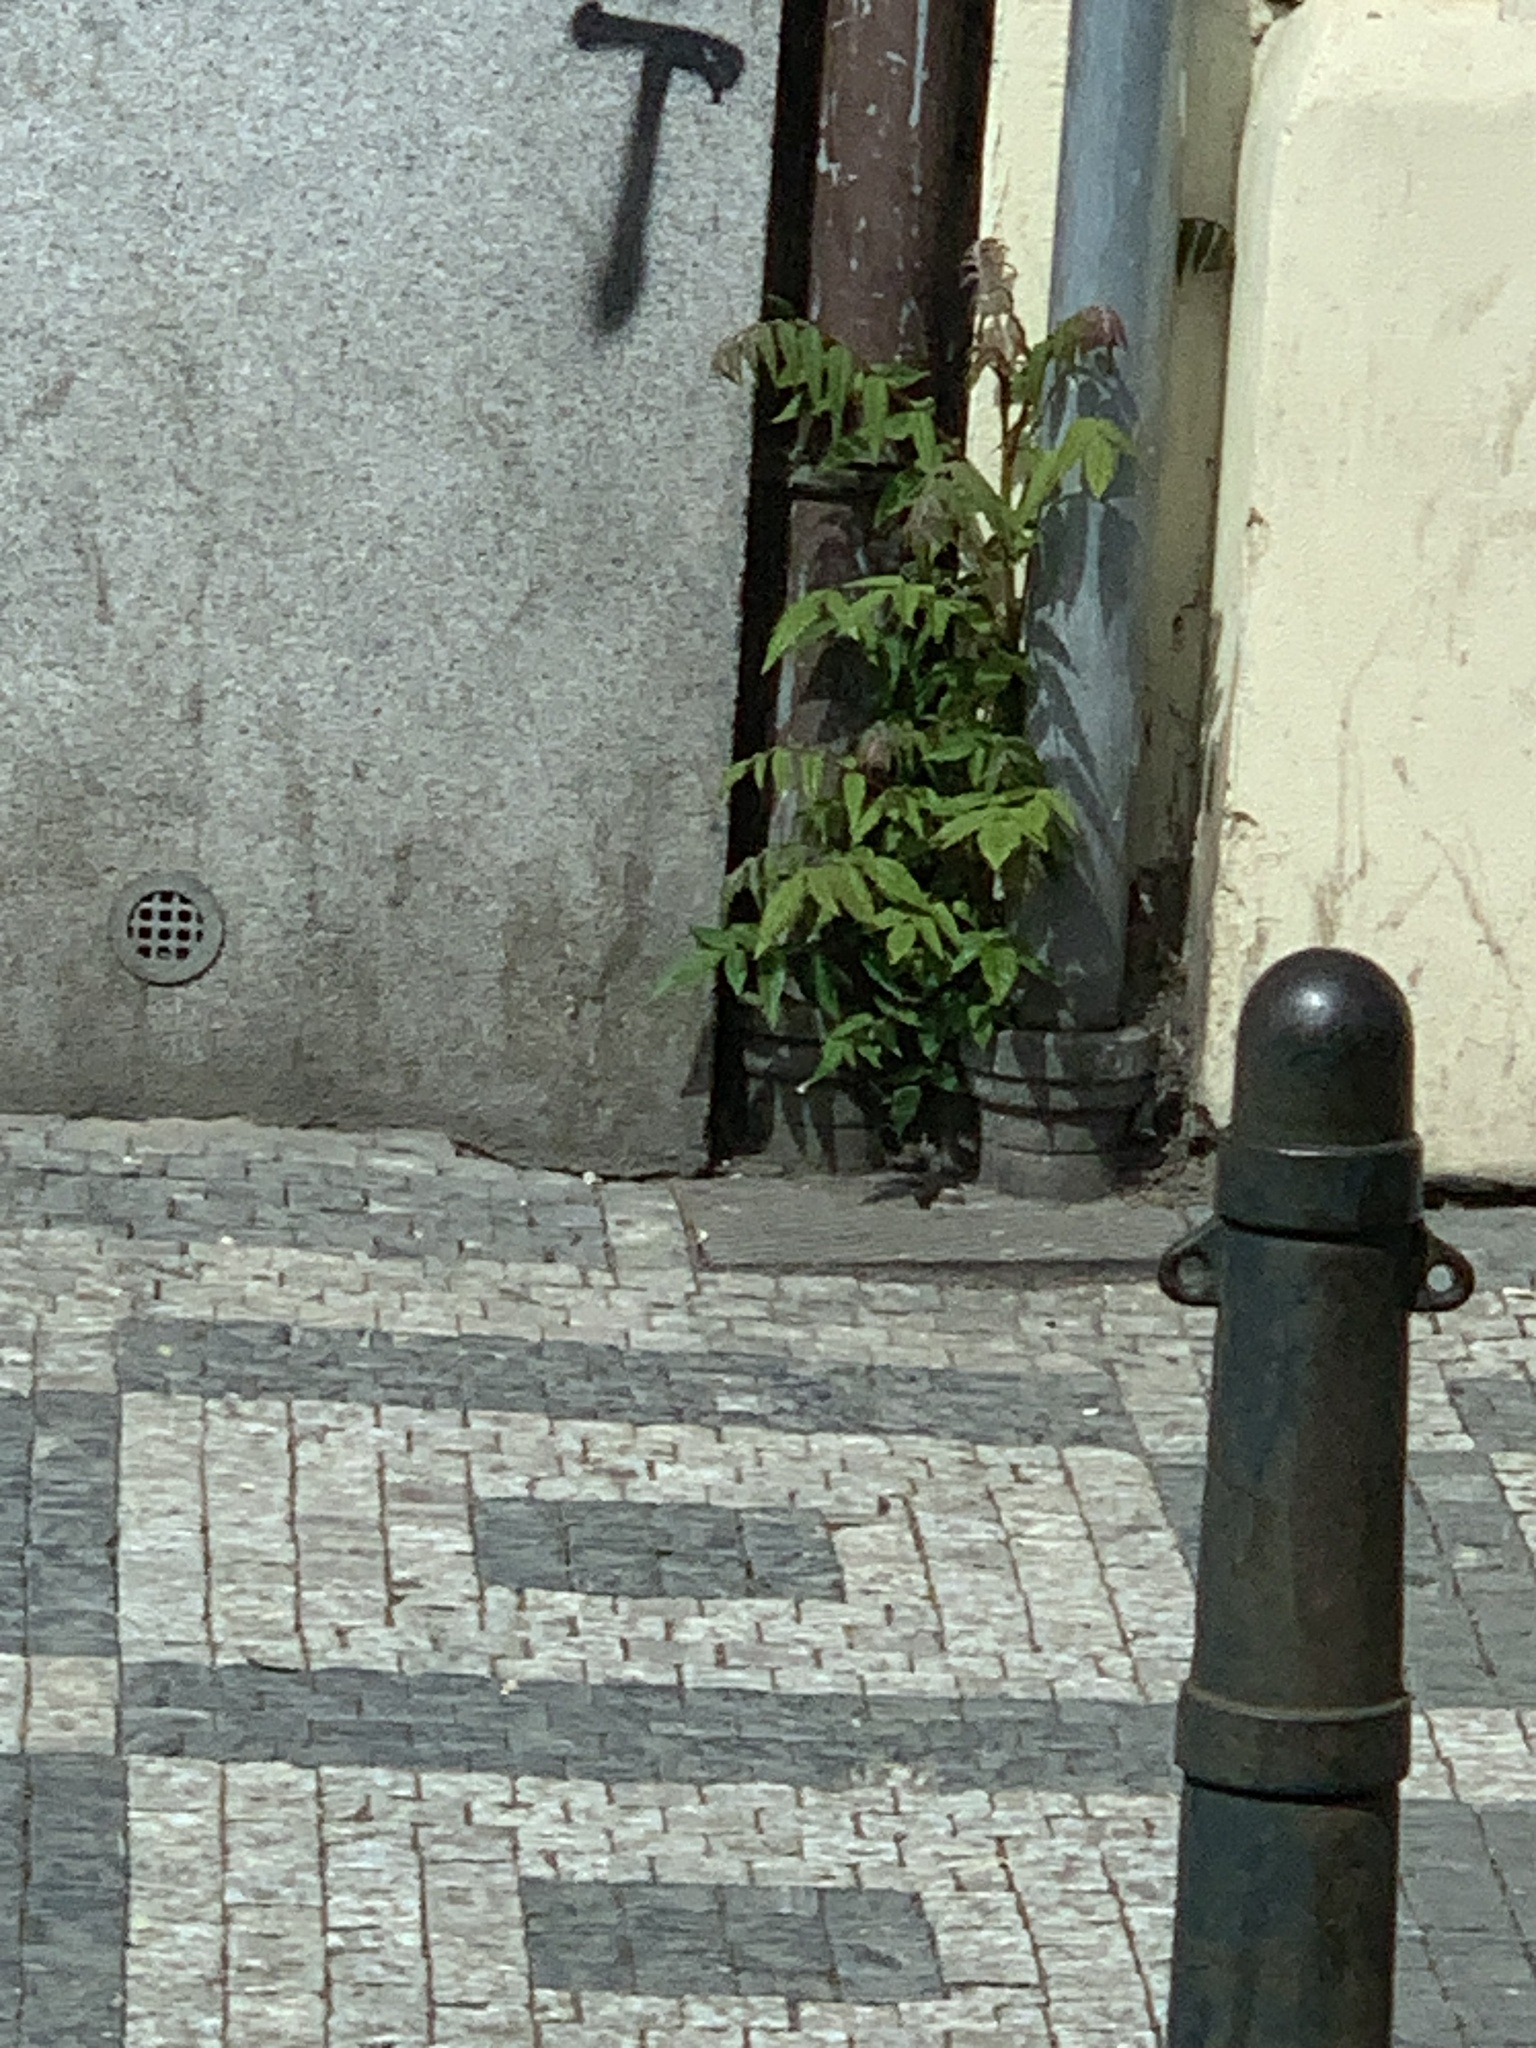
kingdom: Plantae
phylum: Tracheophyta
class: Magnoliopsida
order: Sapindales
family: Simaroubaceae
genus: Ailanthus
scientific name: Ailanthus altissima
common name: Tree-of-heaven
